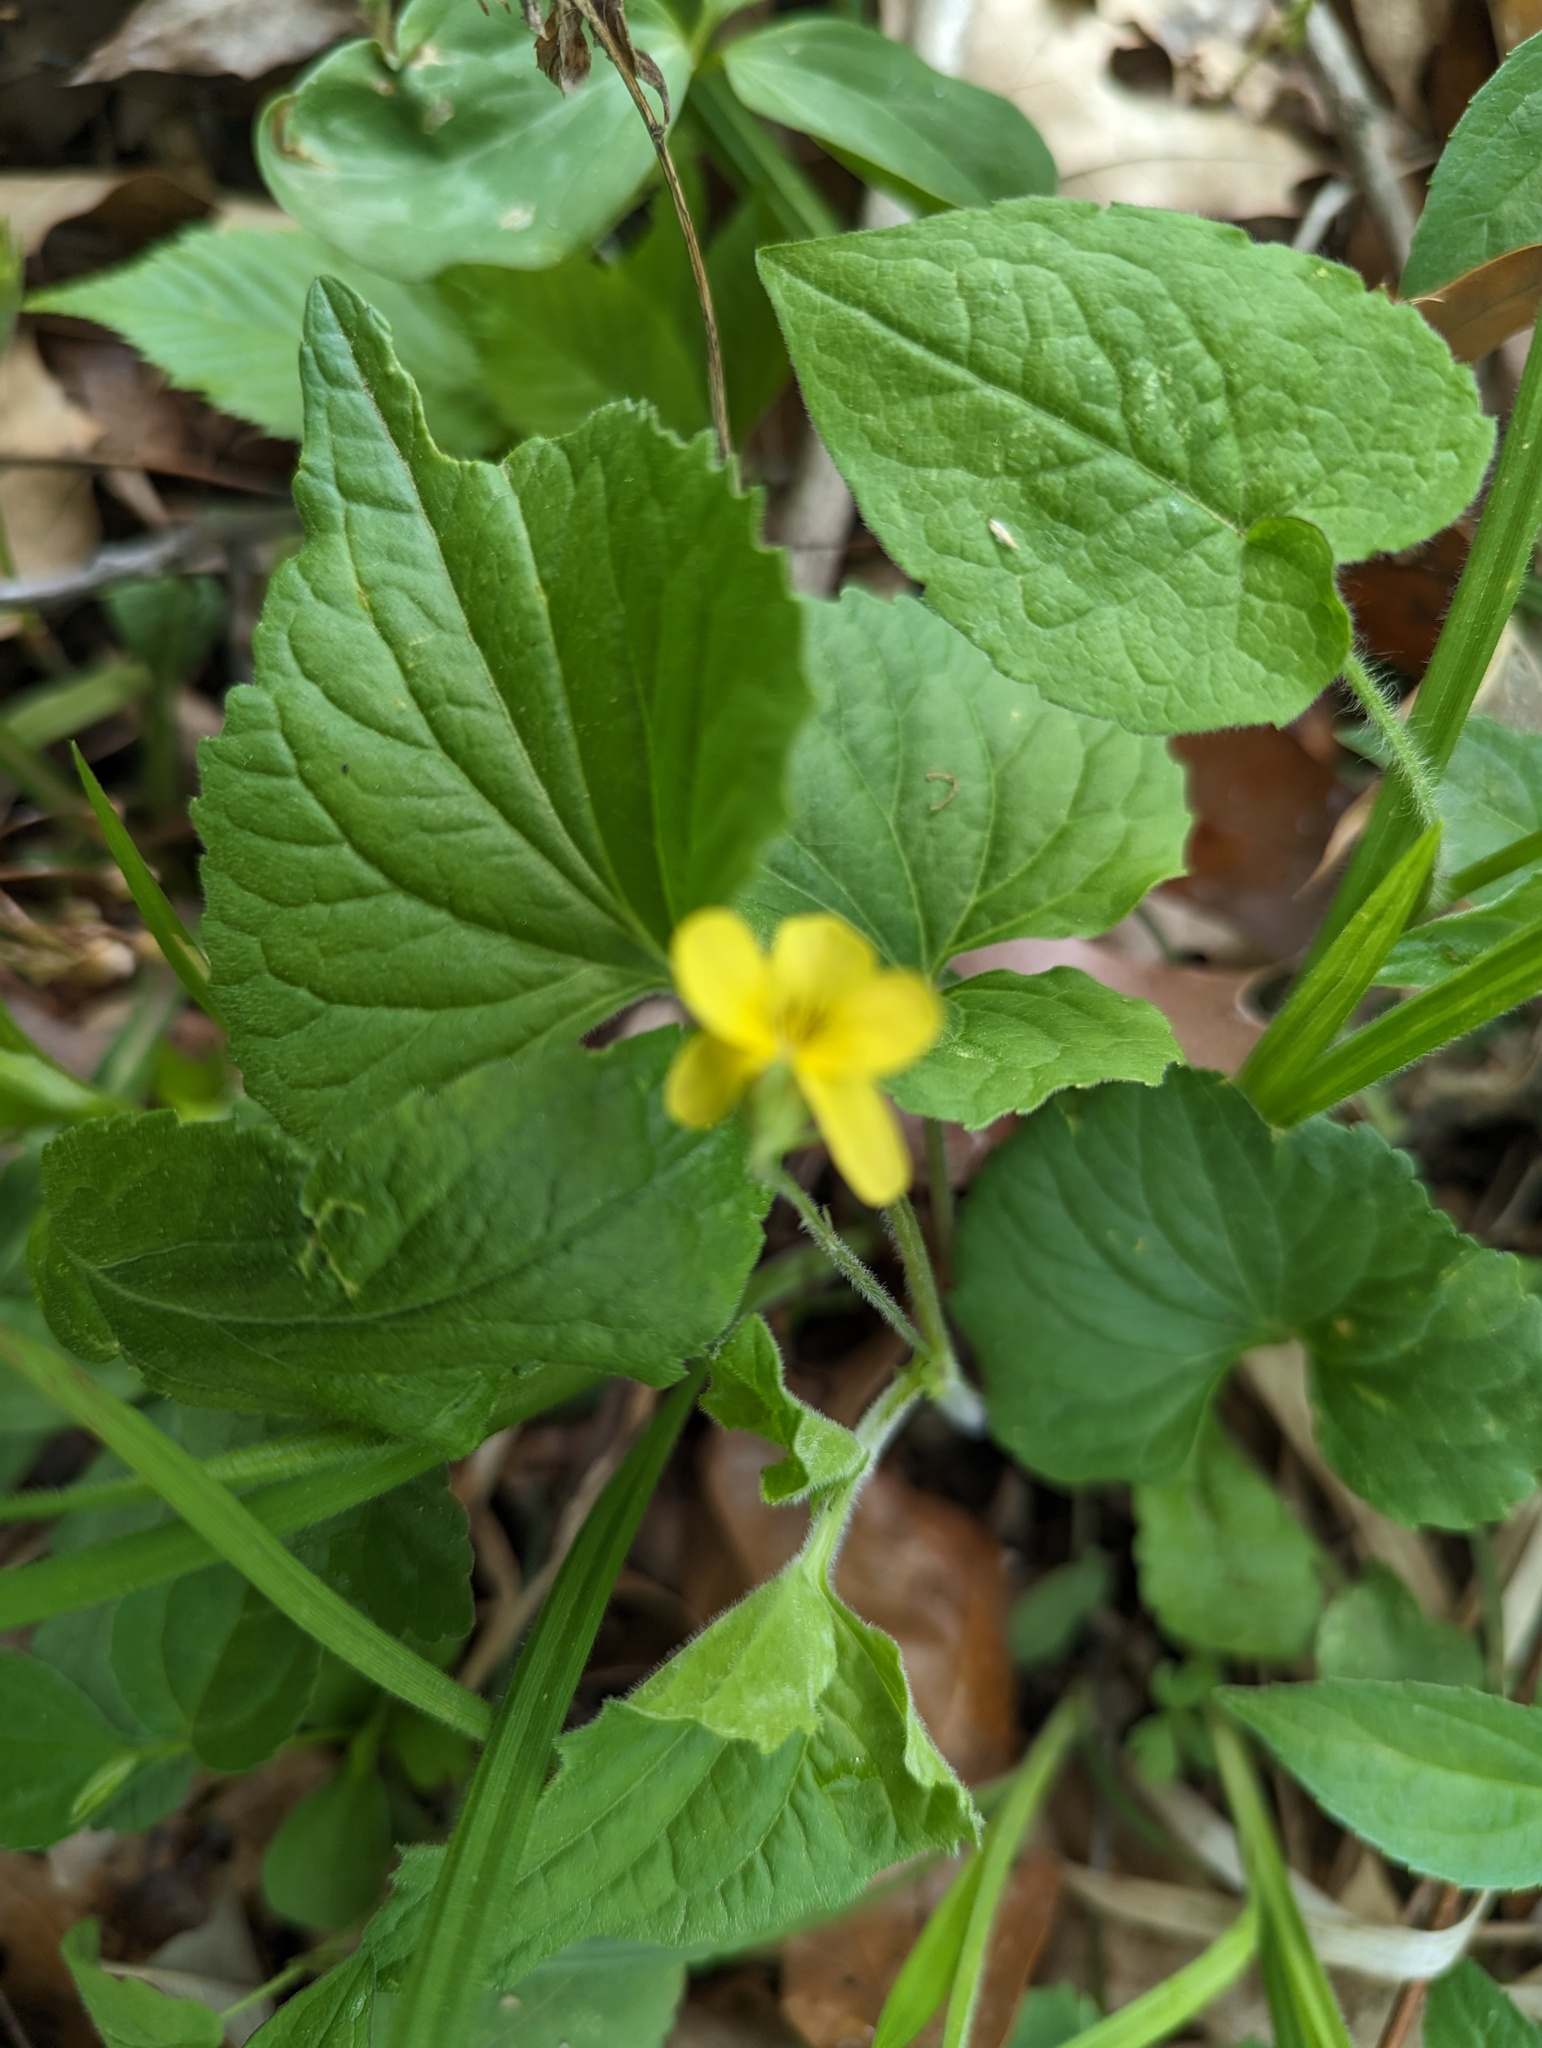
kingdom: Plantae
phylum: Tracheophyta
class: Magnoliopsida
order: Malpighiales
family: Violaceae
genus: Viola
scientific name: Viola eriocarpa
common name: Smooth yellow violet
